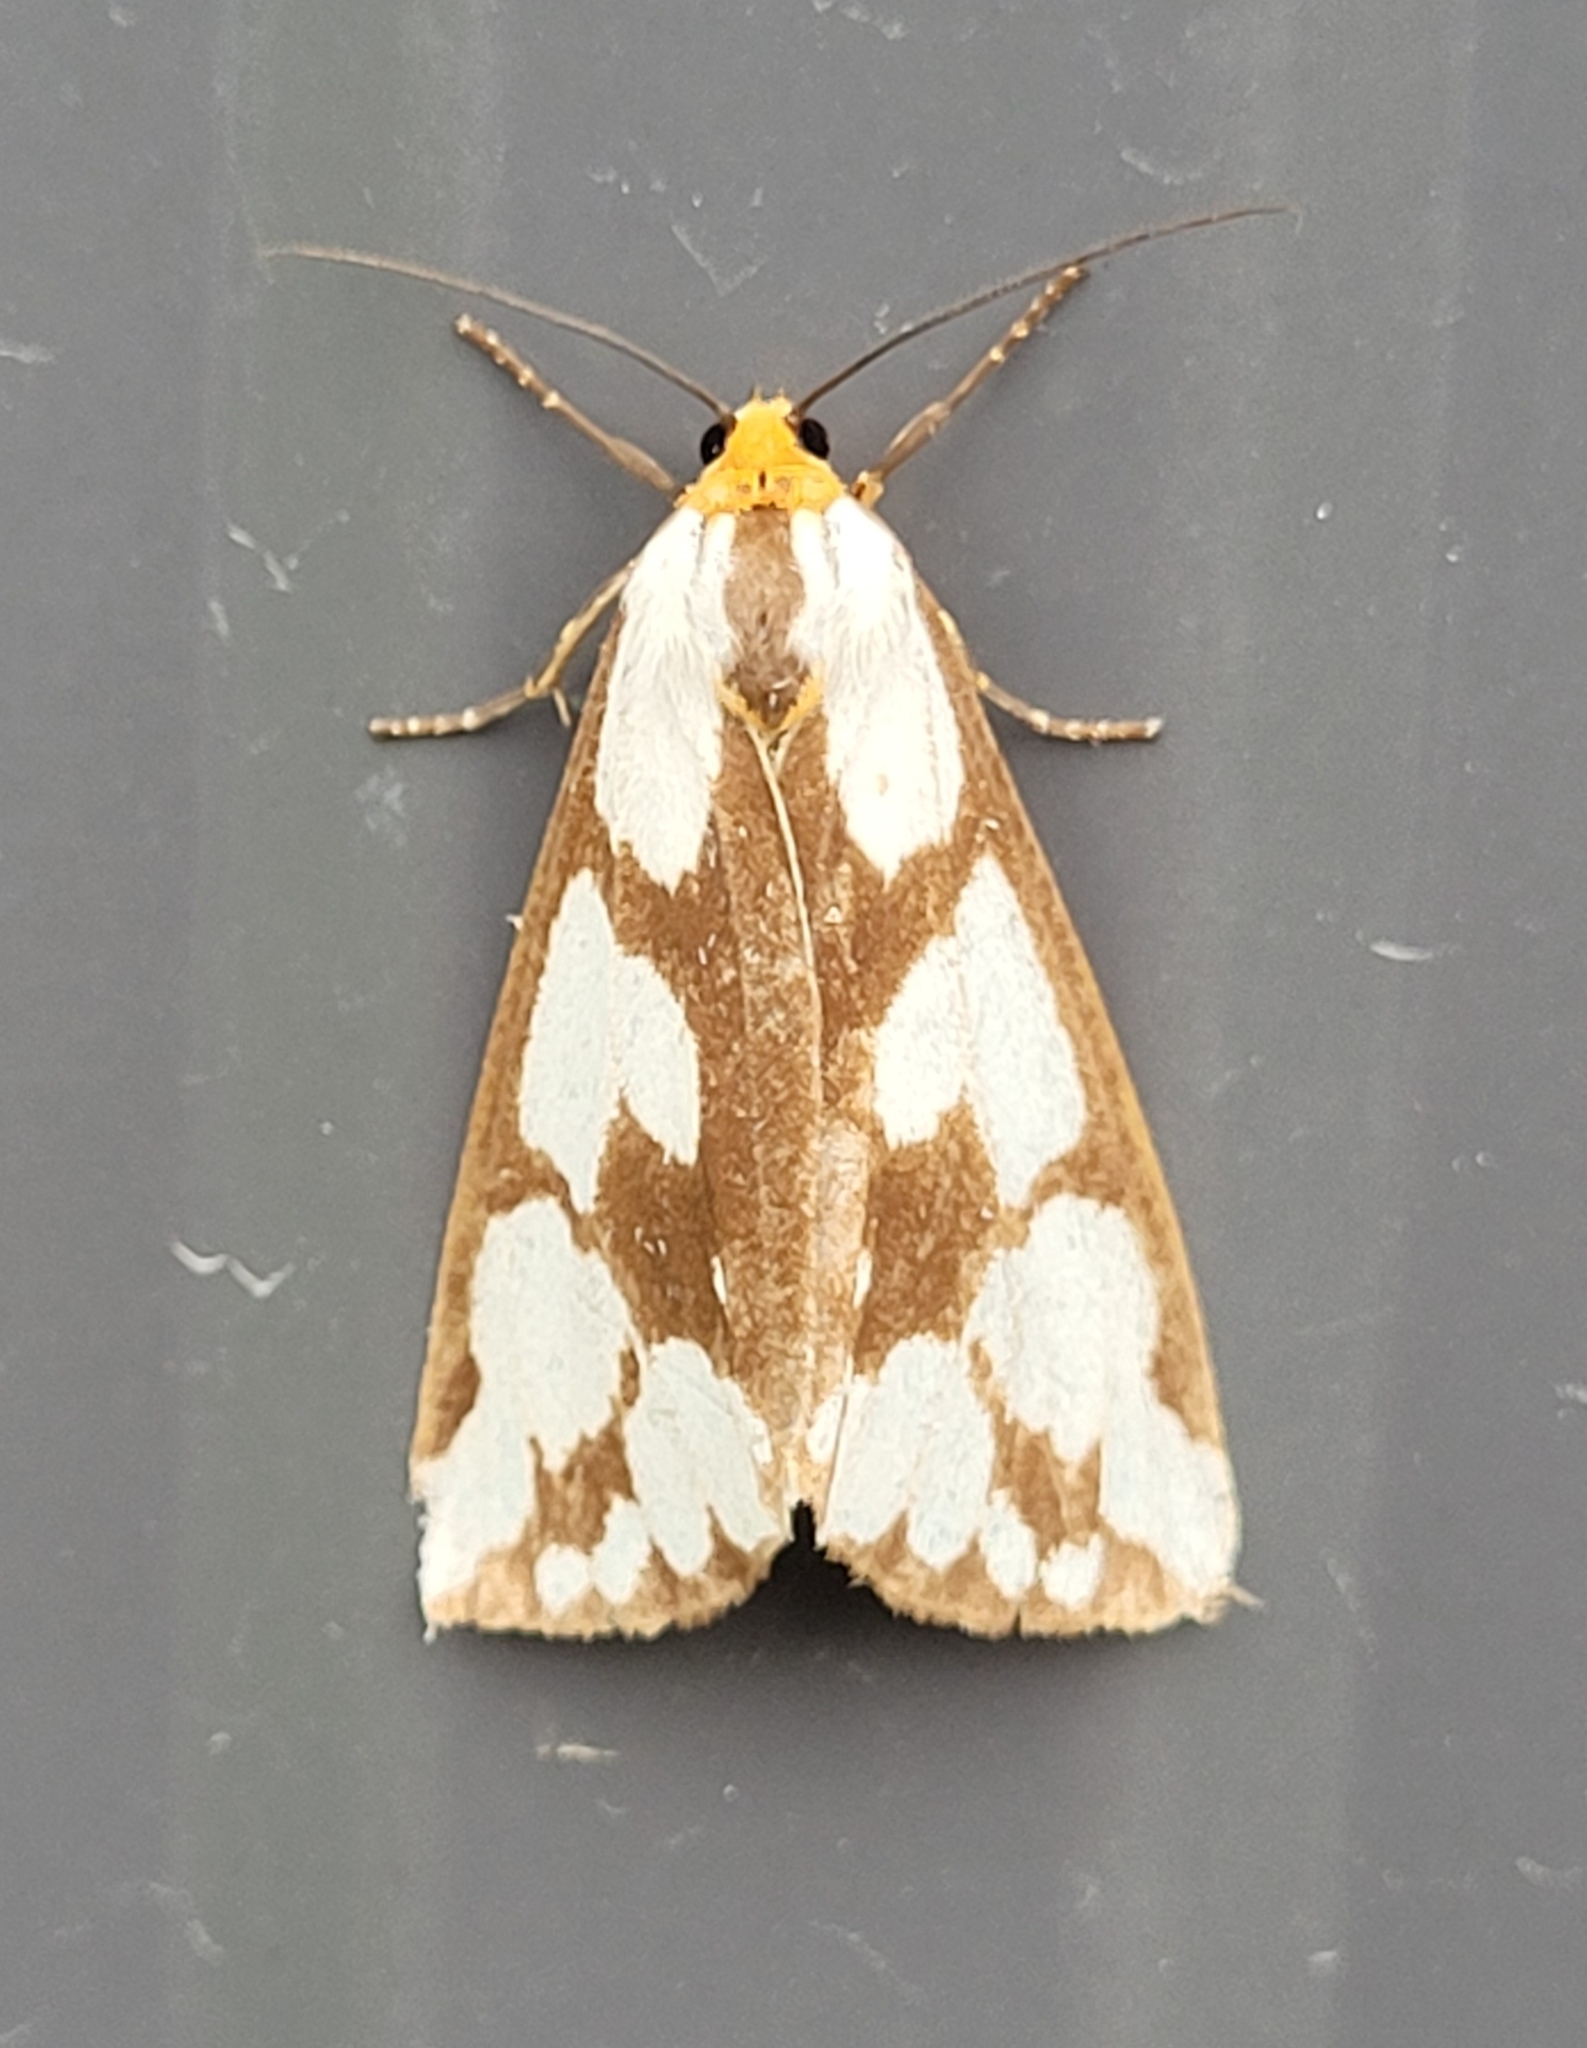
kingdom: Animalia
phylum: Arthropoda
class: Insecta
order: Lepidoptera
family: Erebidae
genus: Haploa
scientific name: Haploa confusa
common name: Confused haploa moth
